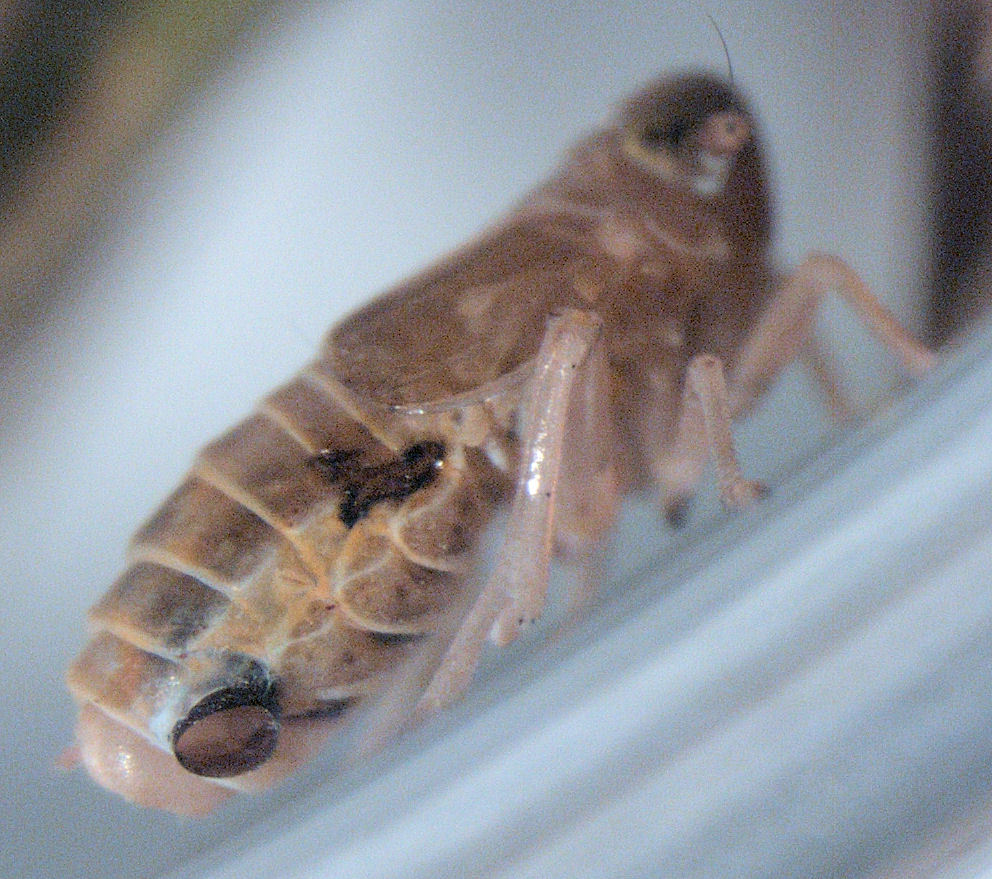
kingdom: Animalia
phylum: Arthropoda
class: Insecta
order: Strepsiptera
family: Elenchidae
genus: Elenchus
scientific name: Elenchus maorianus
